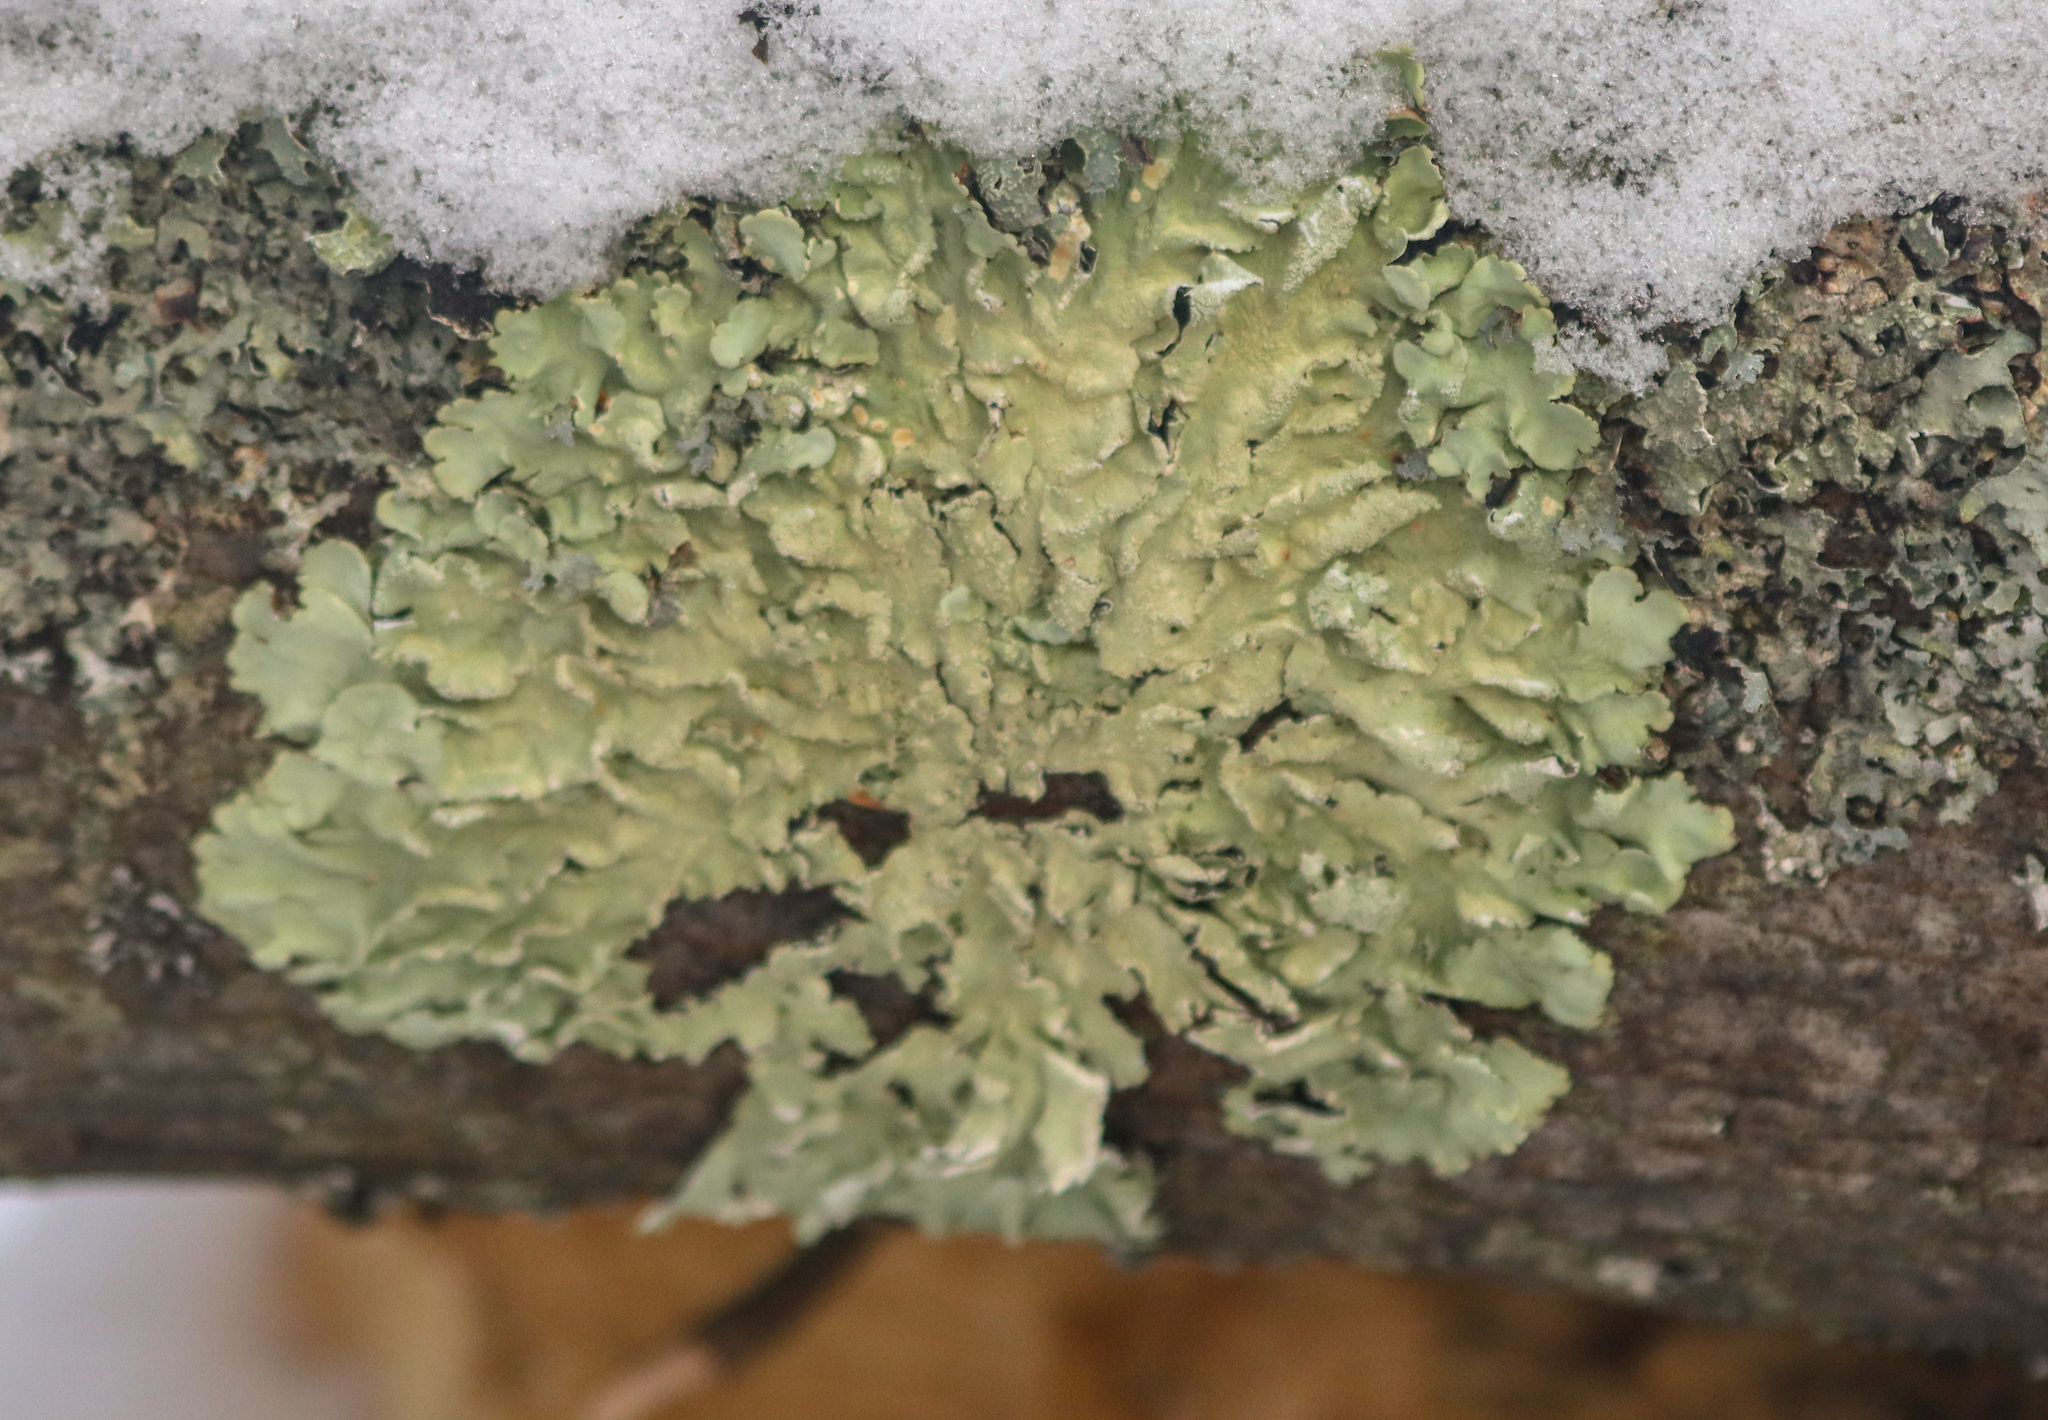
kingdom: Fungi
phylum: Ascomycota
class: Lecanoromycetes
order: Lecanorales
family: Parmeliaceae
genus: Flavoparmelia
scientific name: Flavoparmelia caperata
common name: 40-mile per hour lichen
